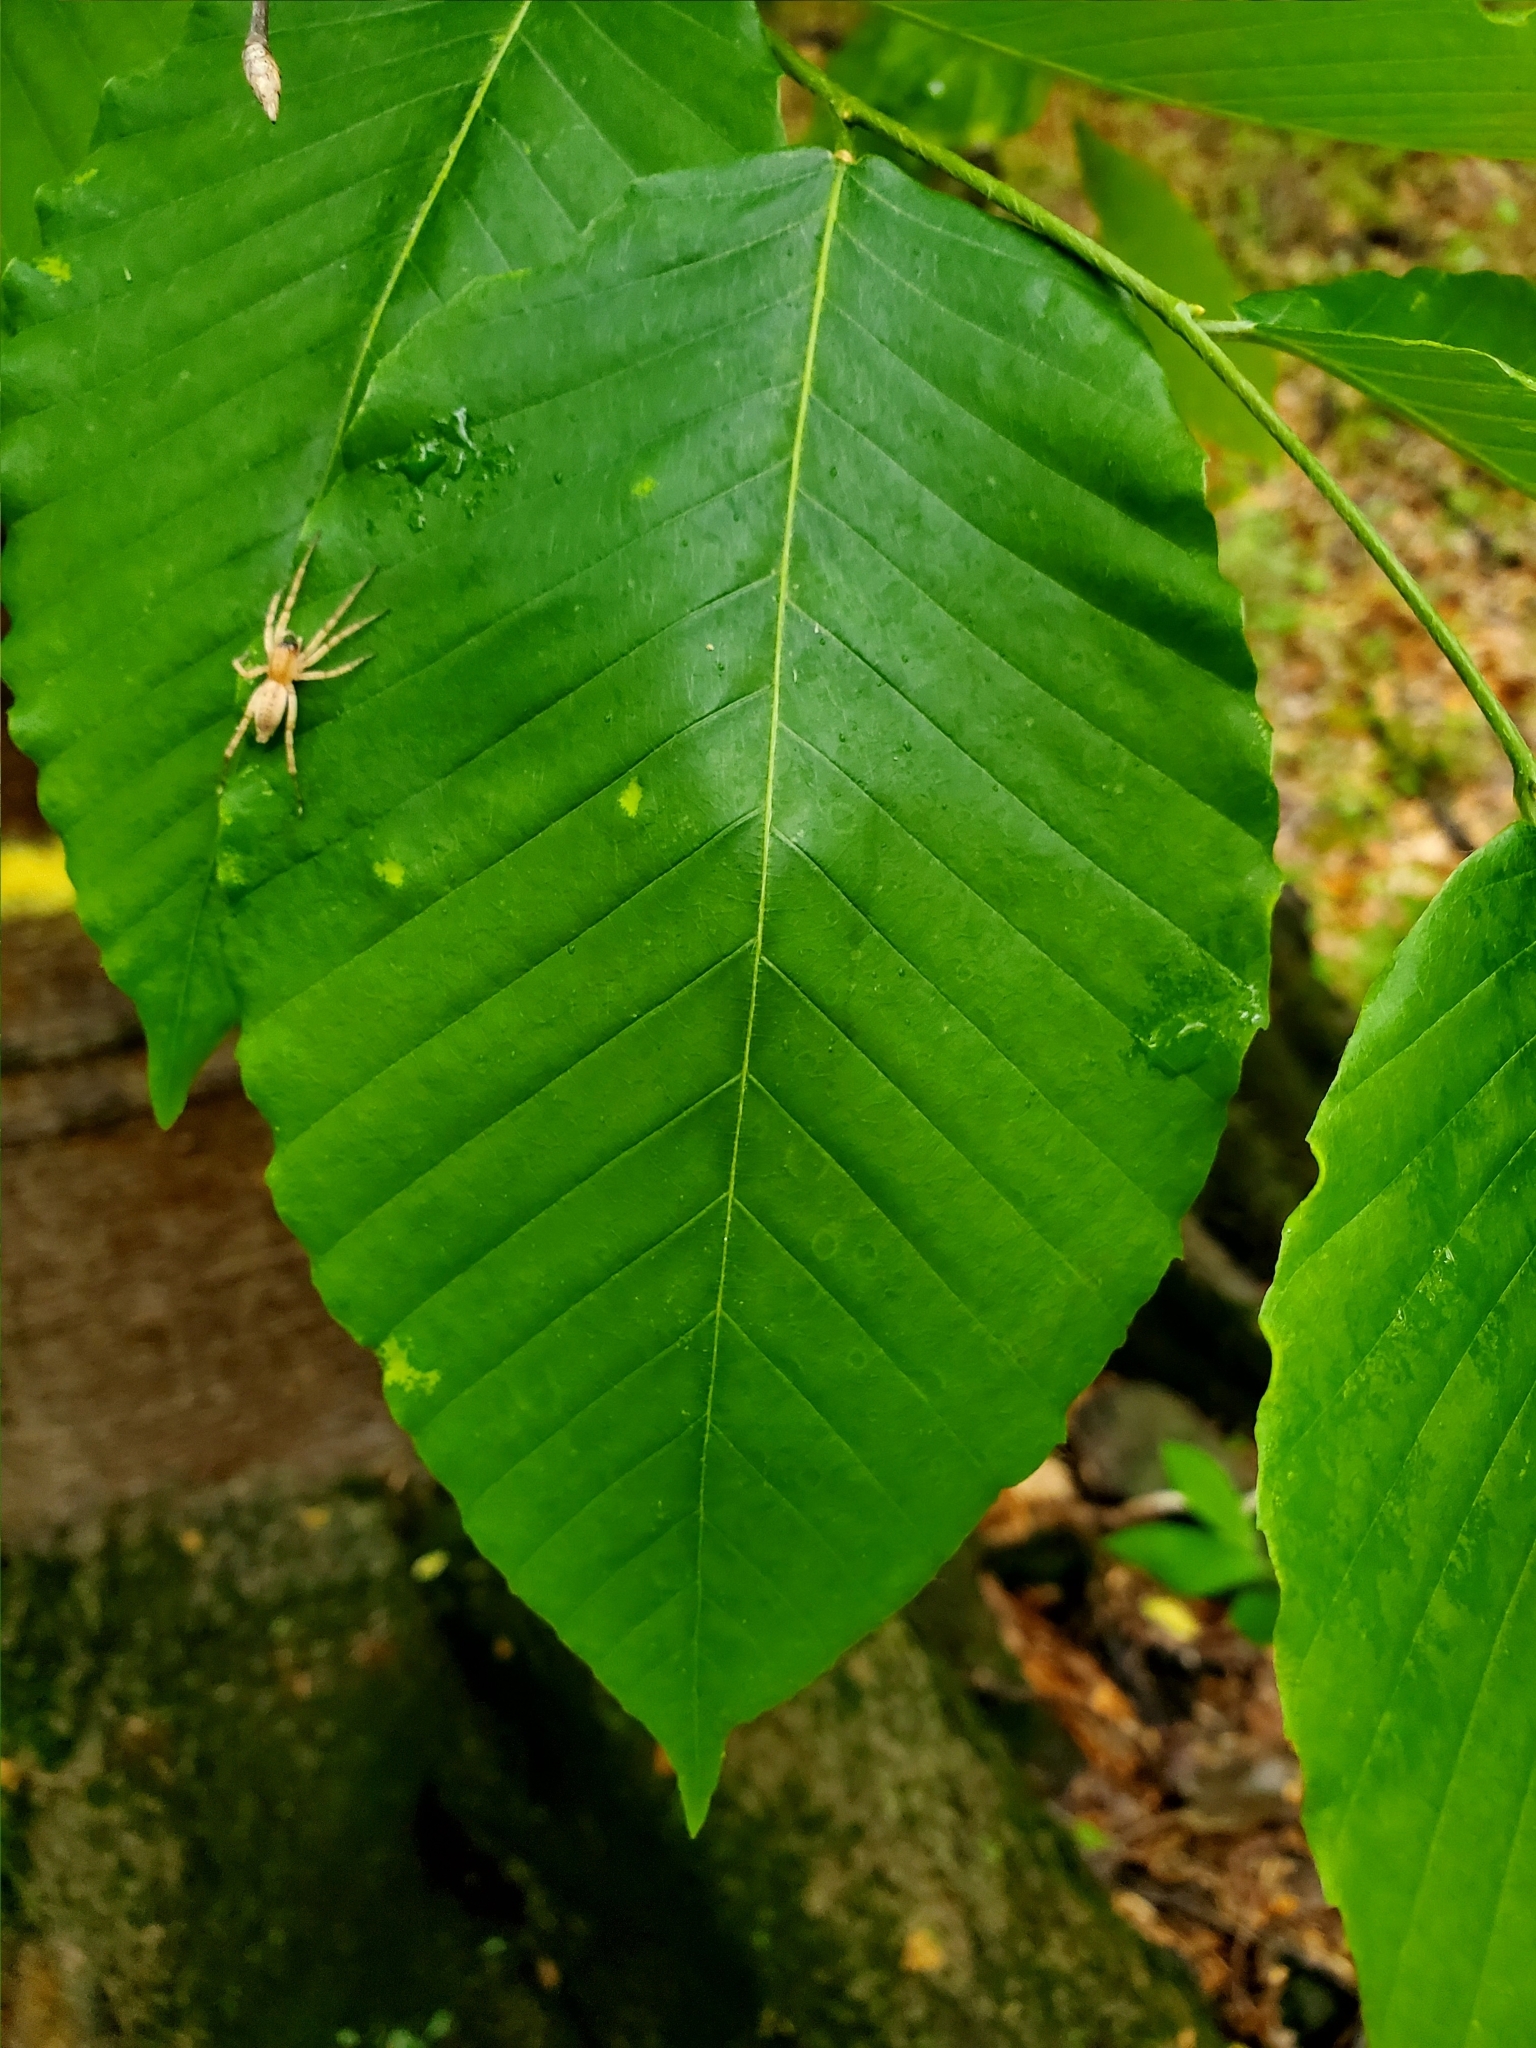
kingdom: Plantae
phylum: Tracheophyta
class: Magnoliopsida
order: Fagales
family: Fagaceae
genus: Fagus
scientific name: Fagus grandifolia
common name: American beech
